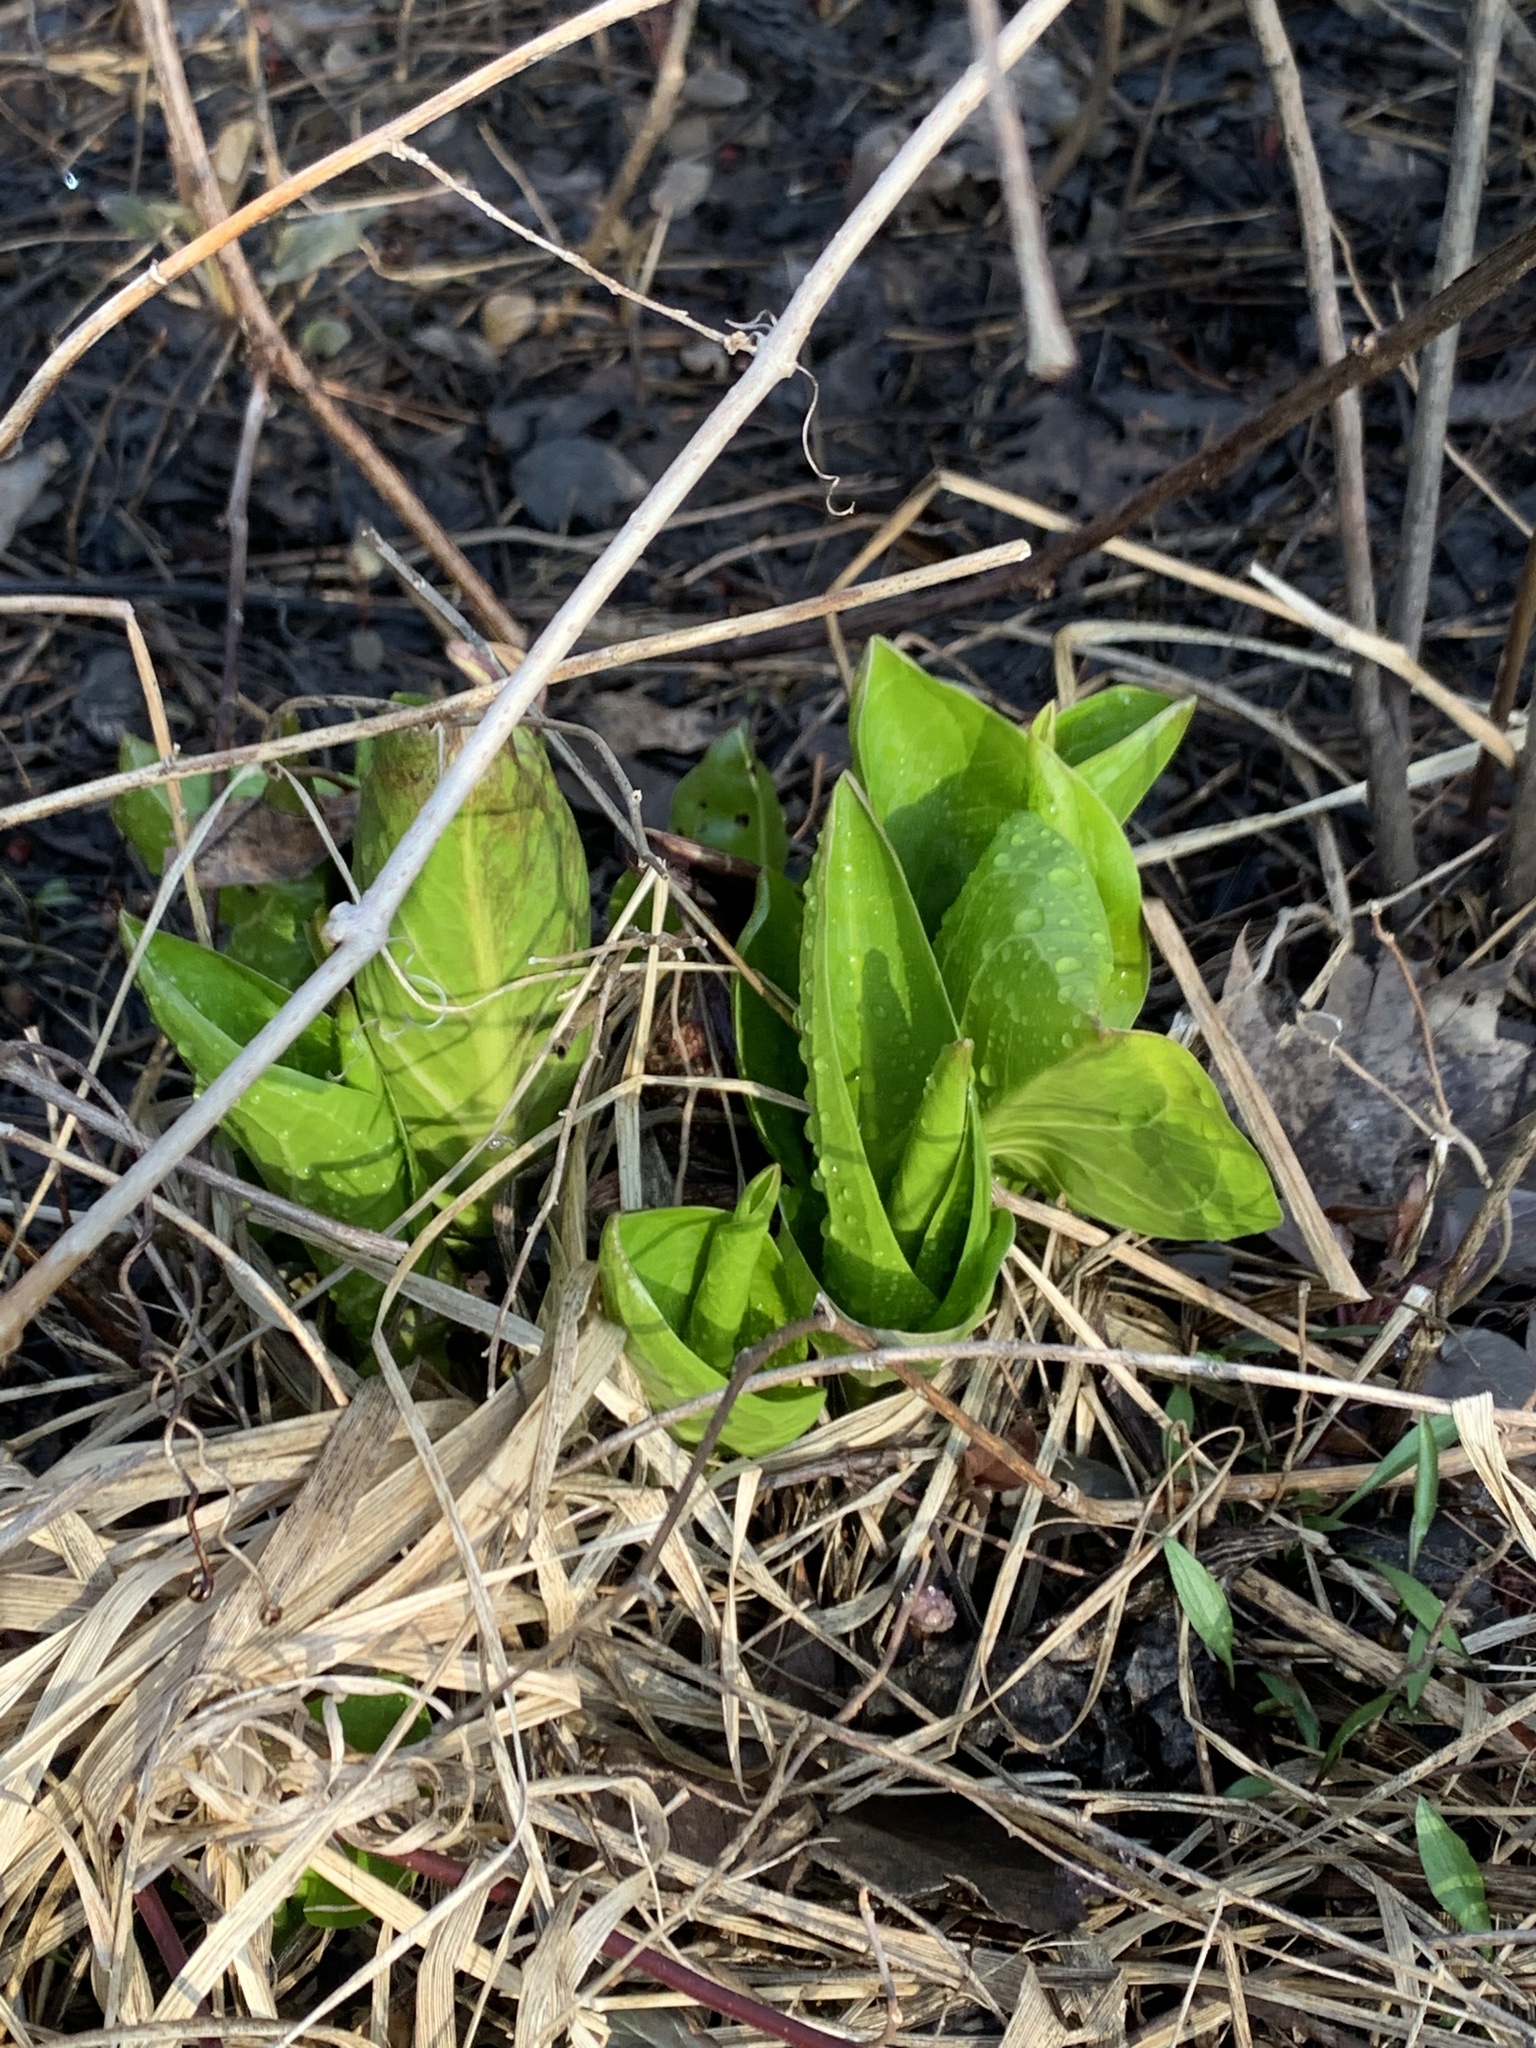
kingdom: Plantae
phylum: Tracheophyta
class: Liliopsida
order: Alismatales
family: Araceae
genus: Symplocarpus
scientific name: Symplocarpus foetidus
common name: Eastern skunk cabbage
